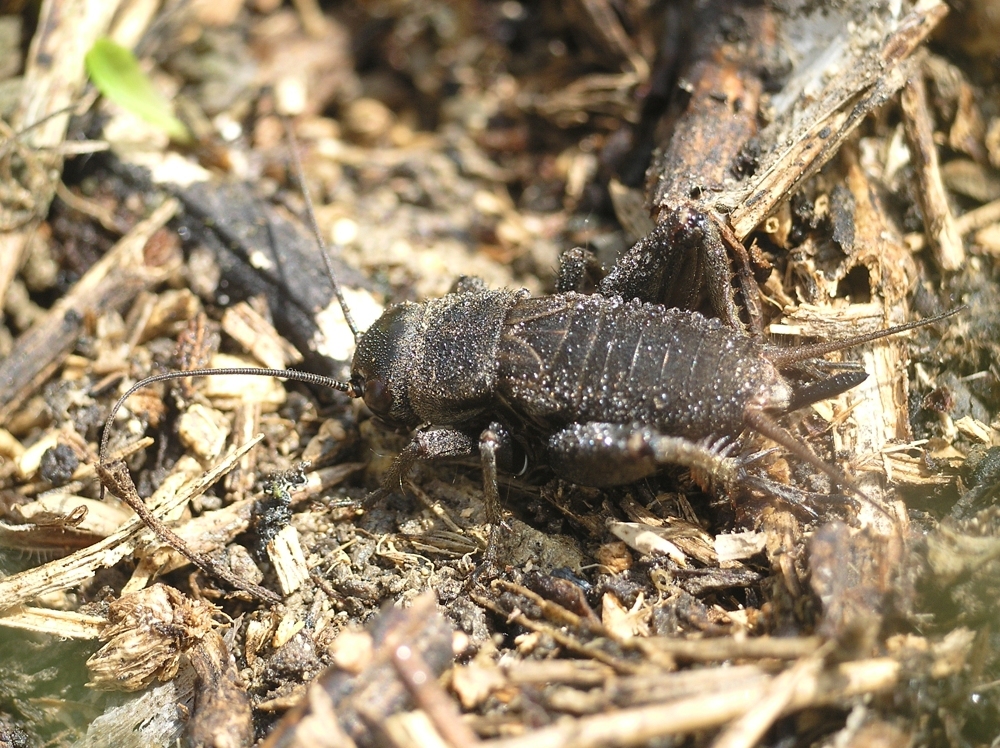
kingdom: Animalia
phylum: Arthropoda
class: Insecta
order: Orthoptera
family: Gryllidae
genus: Melanogryllus
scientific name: Melanogryllus desertus
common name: Desert cricket
